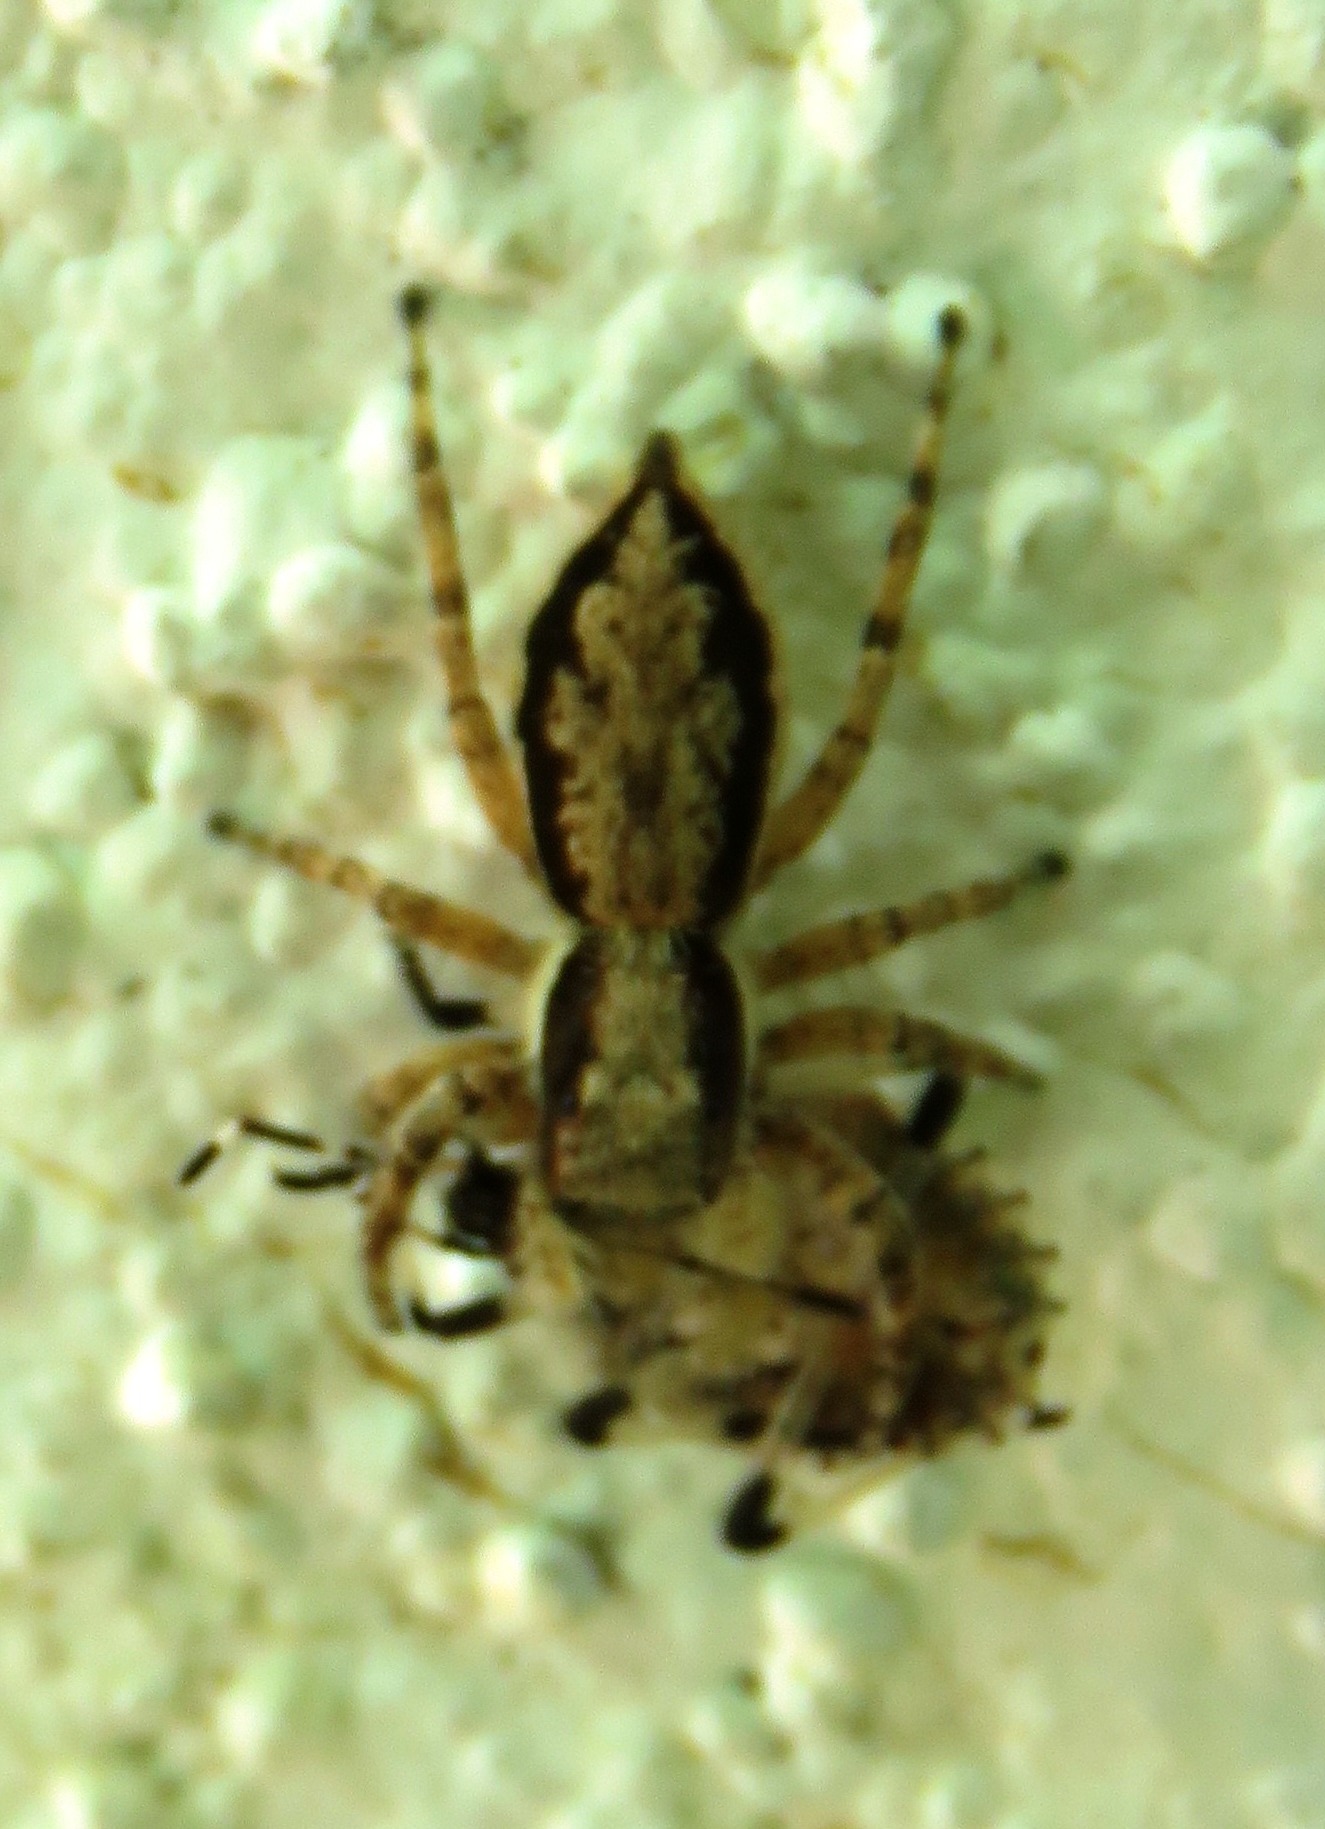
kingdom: Animalia
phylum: Arthropoda
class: Arachnida
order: Araneae
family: Salticidae
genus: Menemerus
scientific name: Menemerus bivittatus
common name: Gray wall jumper
